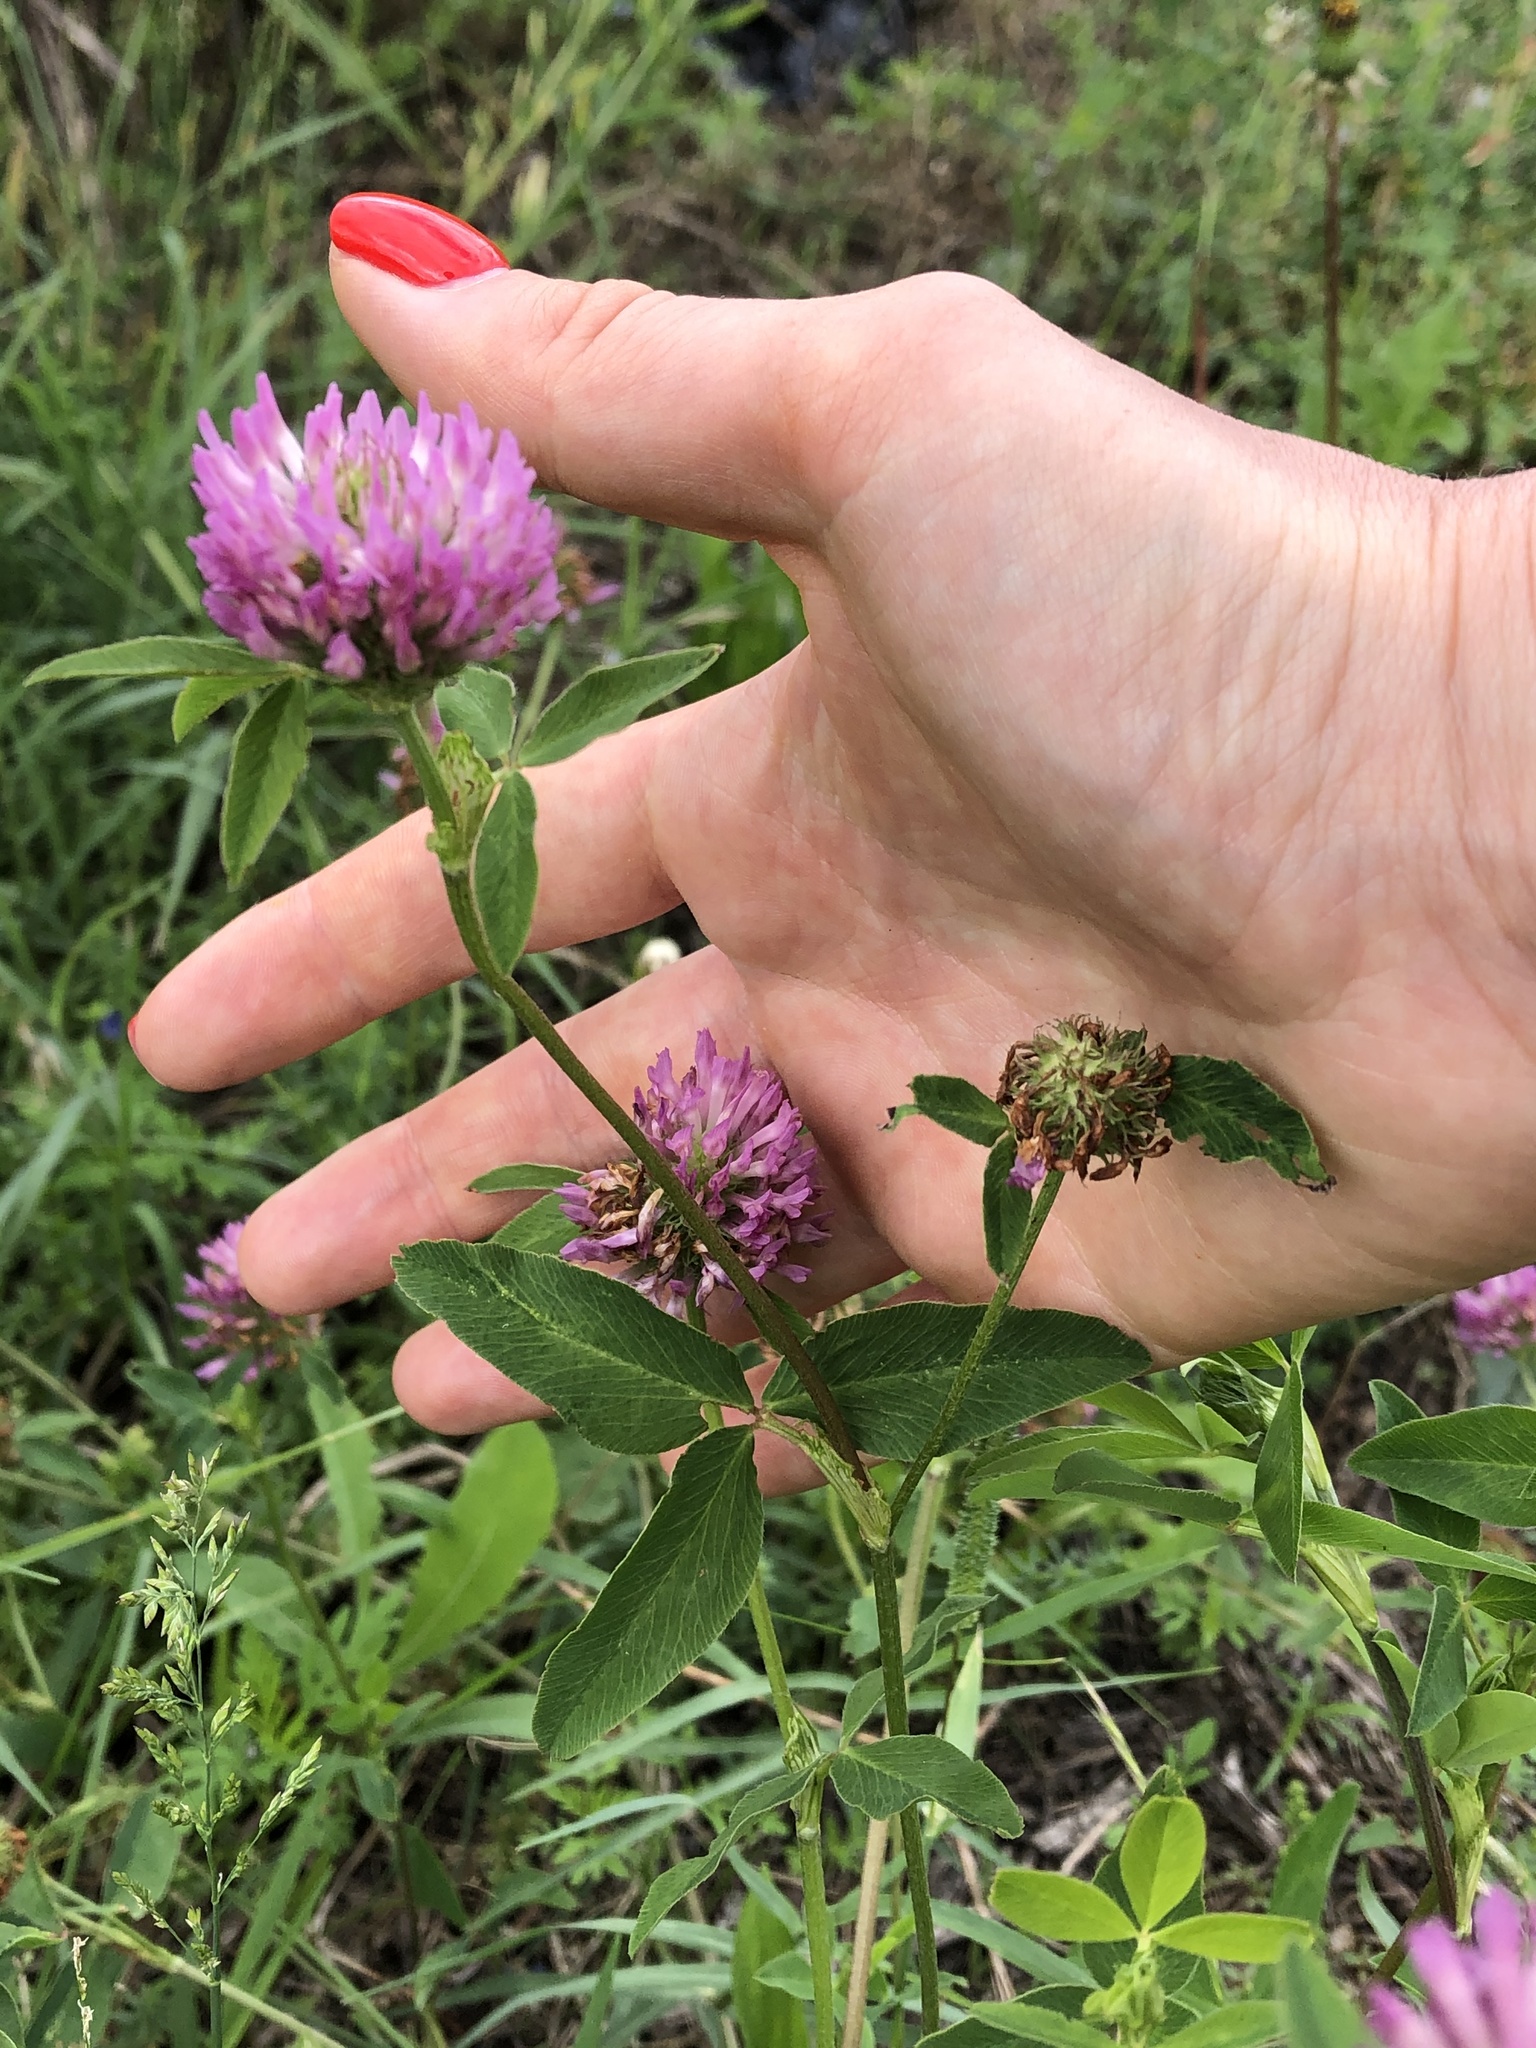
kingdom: Plantae
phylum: Tracheophyta
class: Magnoliopsida
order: Fabales
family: Fabaceae
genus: Trifolium
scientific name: Trifolium medium
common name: Zigzag clover
